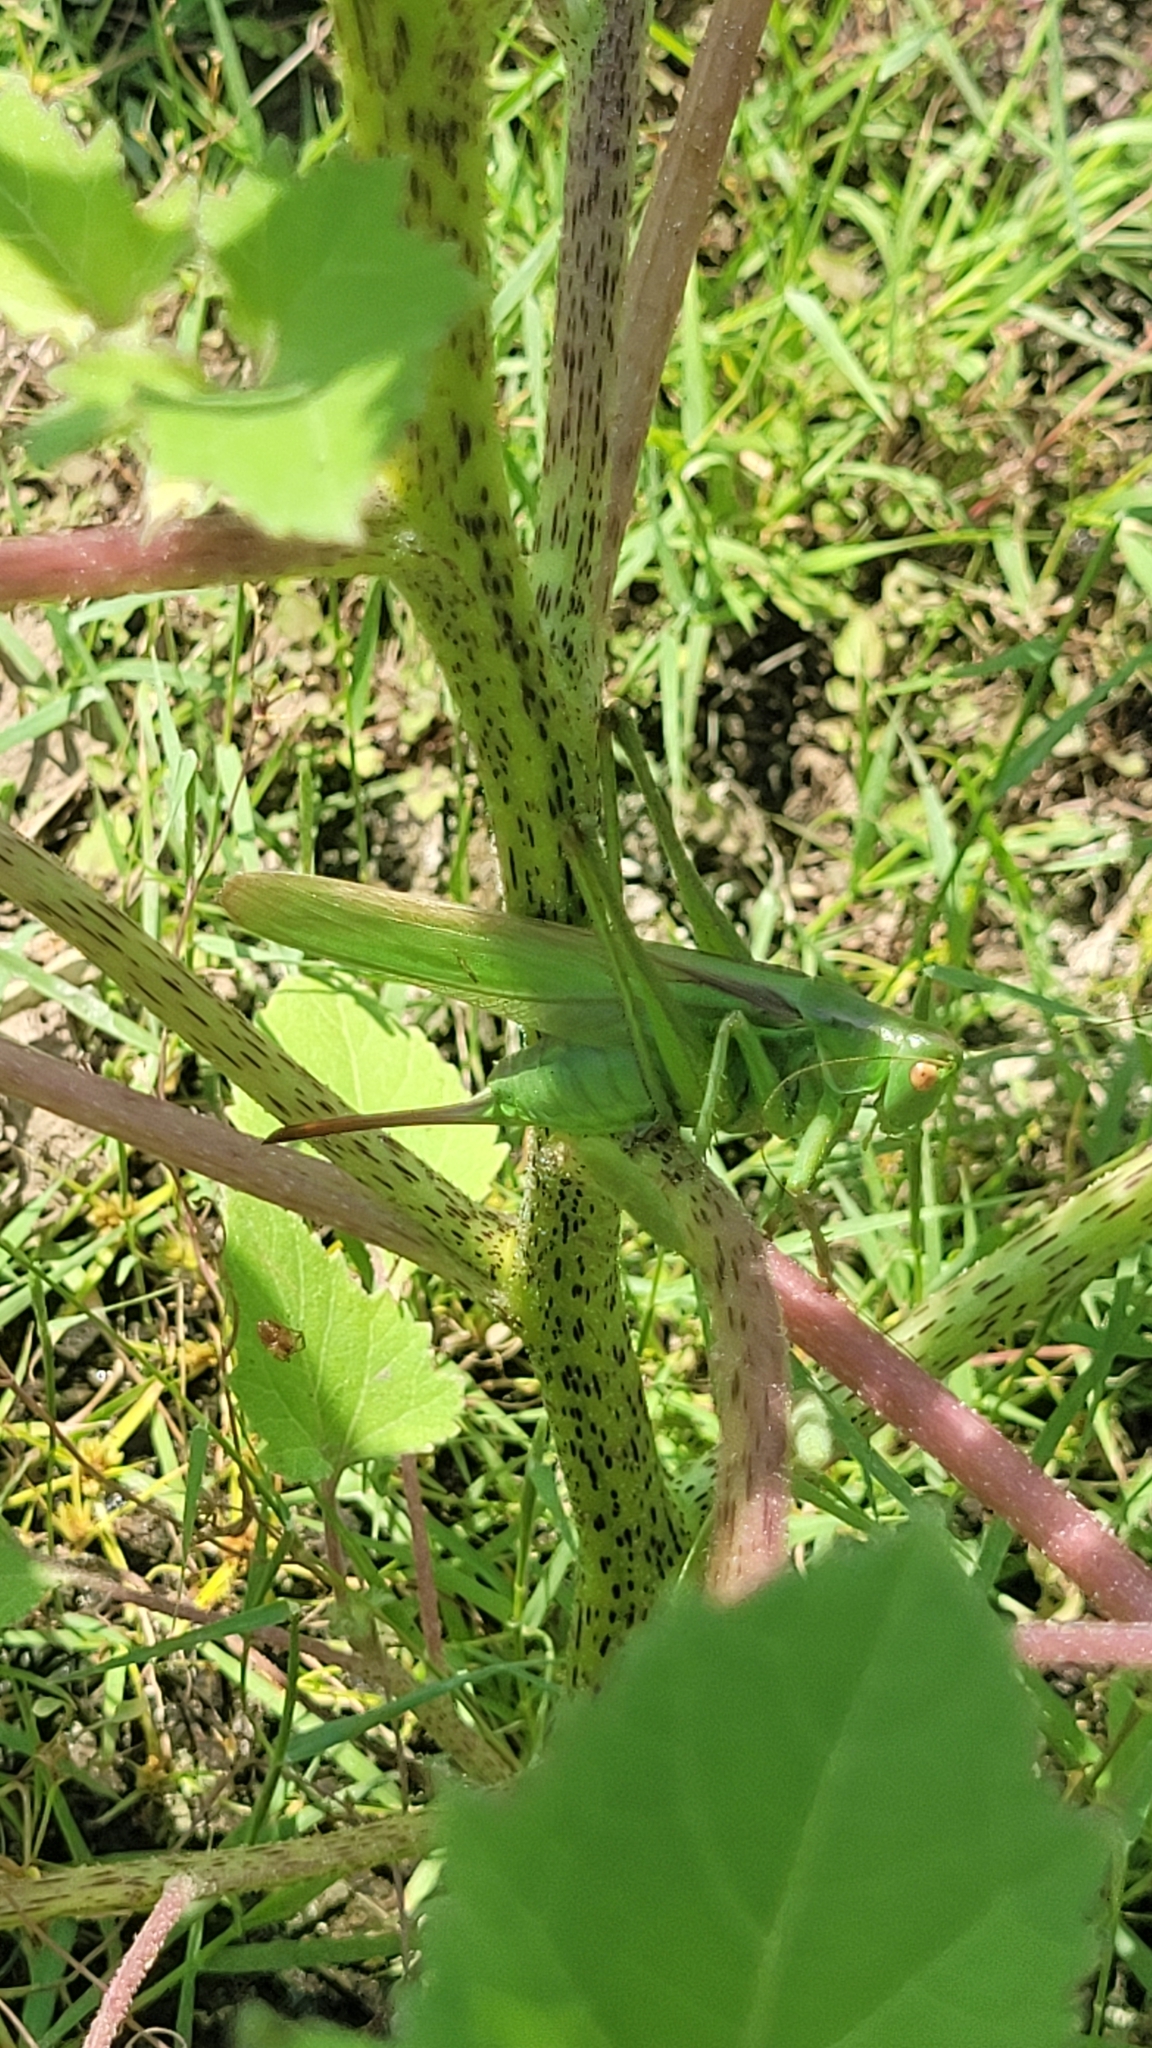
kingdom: Animalia
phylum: Arthropoda
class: Insecta
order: Orthoptera
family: Tettigoniidae
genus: Gampsocleis
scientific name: Gampsocleis schelkovnikovae
